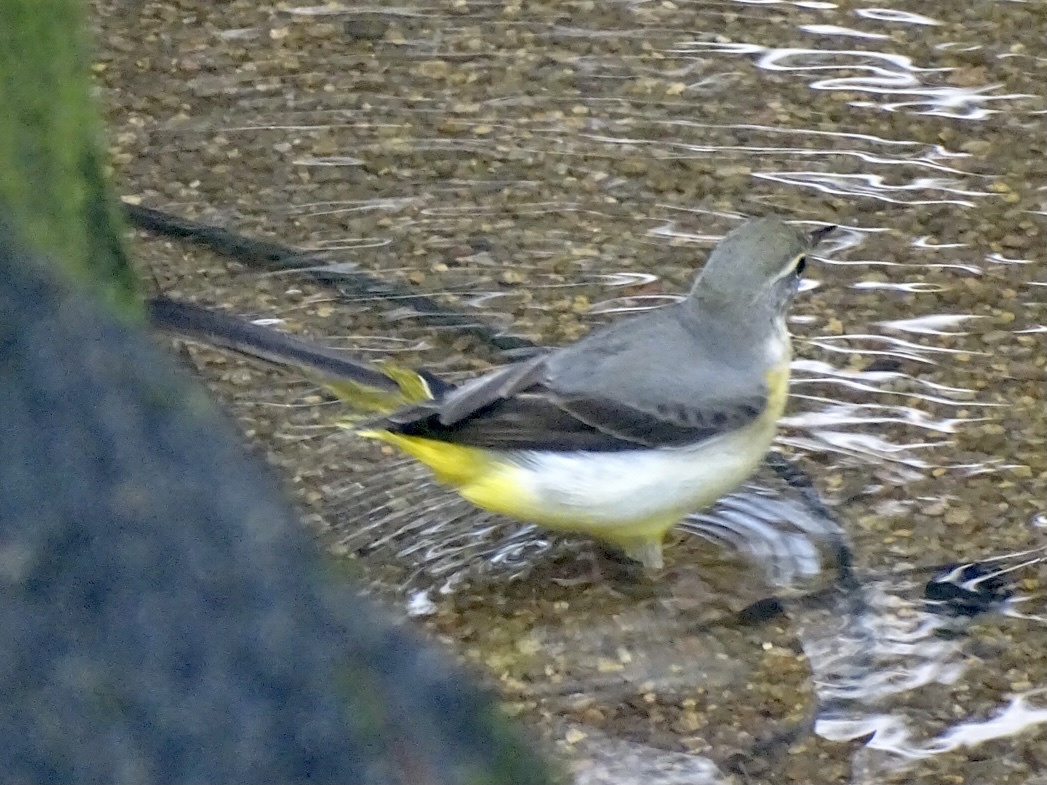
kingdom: Animalia
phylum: Chordata
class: Aves
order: Passeriformes
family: Motacillidae
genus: Motacilla
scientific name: Motacilla cinerea
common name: Grey wagtail
